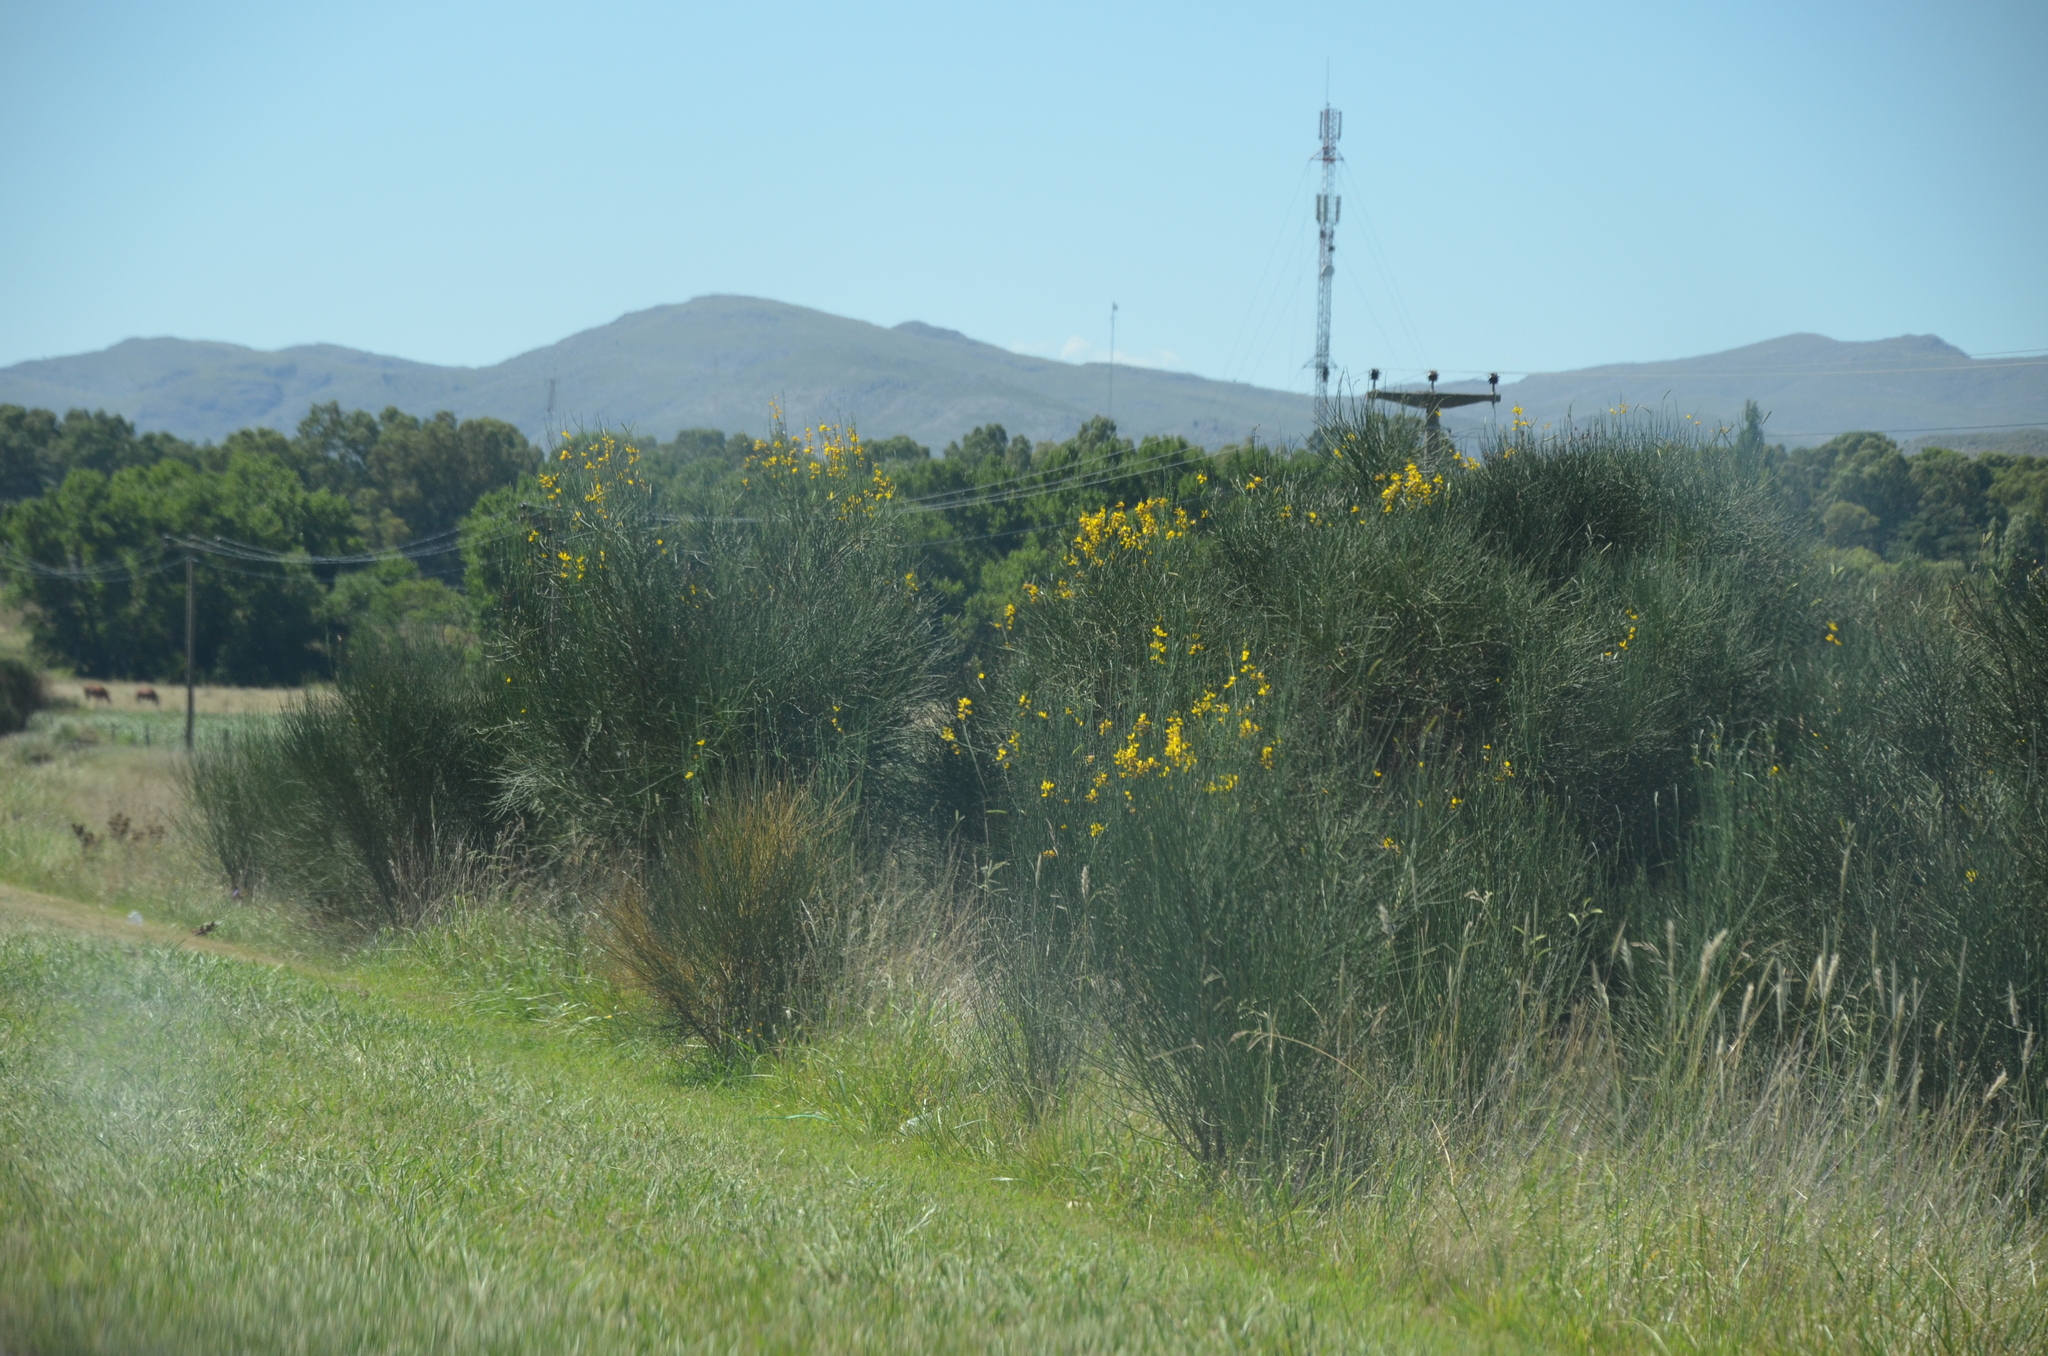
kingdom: Plantae
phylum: Tracheophyta
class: Magnoliopsida
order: Fabales
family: Fabaceae
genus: Spartium
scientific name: Spartium junceum
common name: Spanish broom
